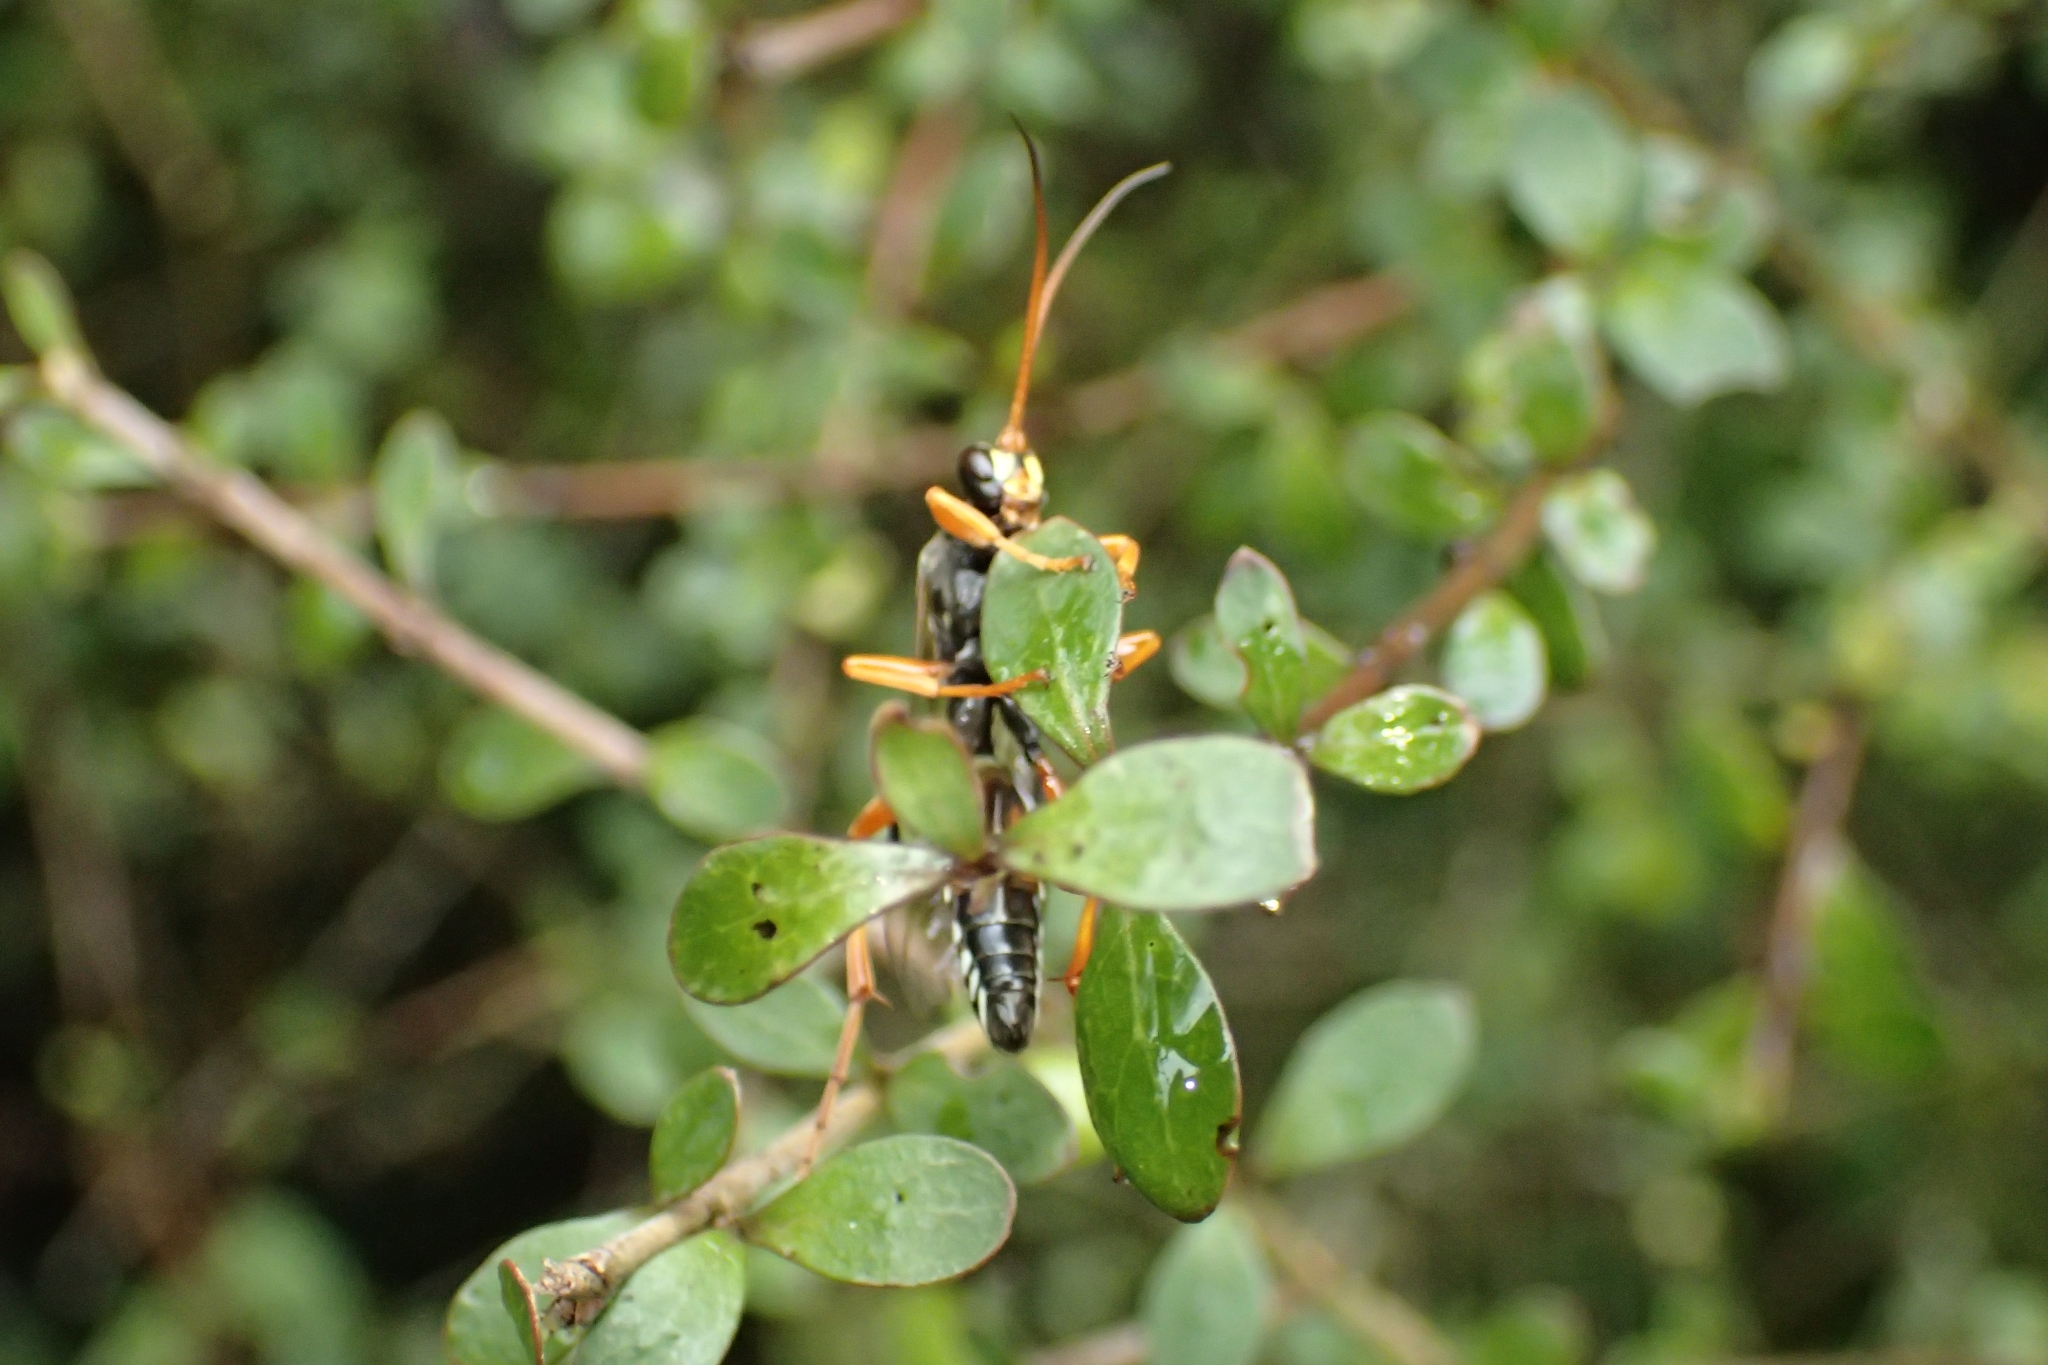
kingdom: Animalia
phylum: Arthropoda
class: Insecta
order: Hymenoptera
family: Ichneumonidae
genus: Eutanyacra
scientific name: Eutanyacra licitatoria
